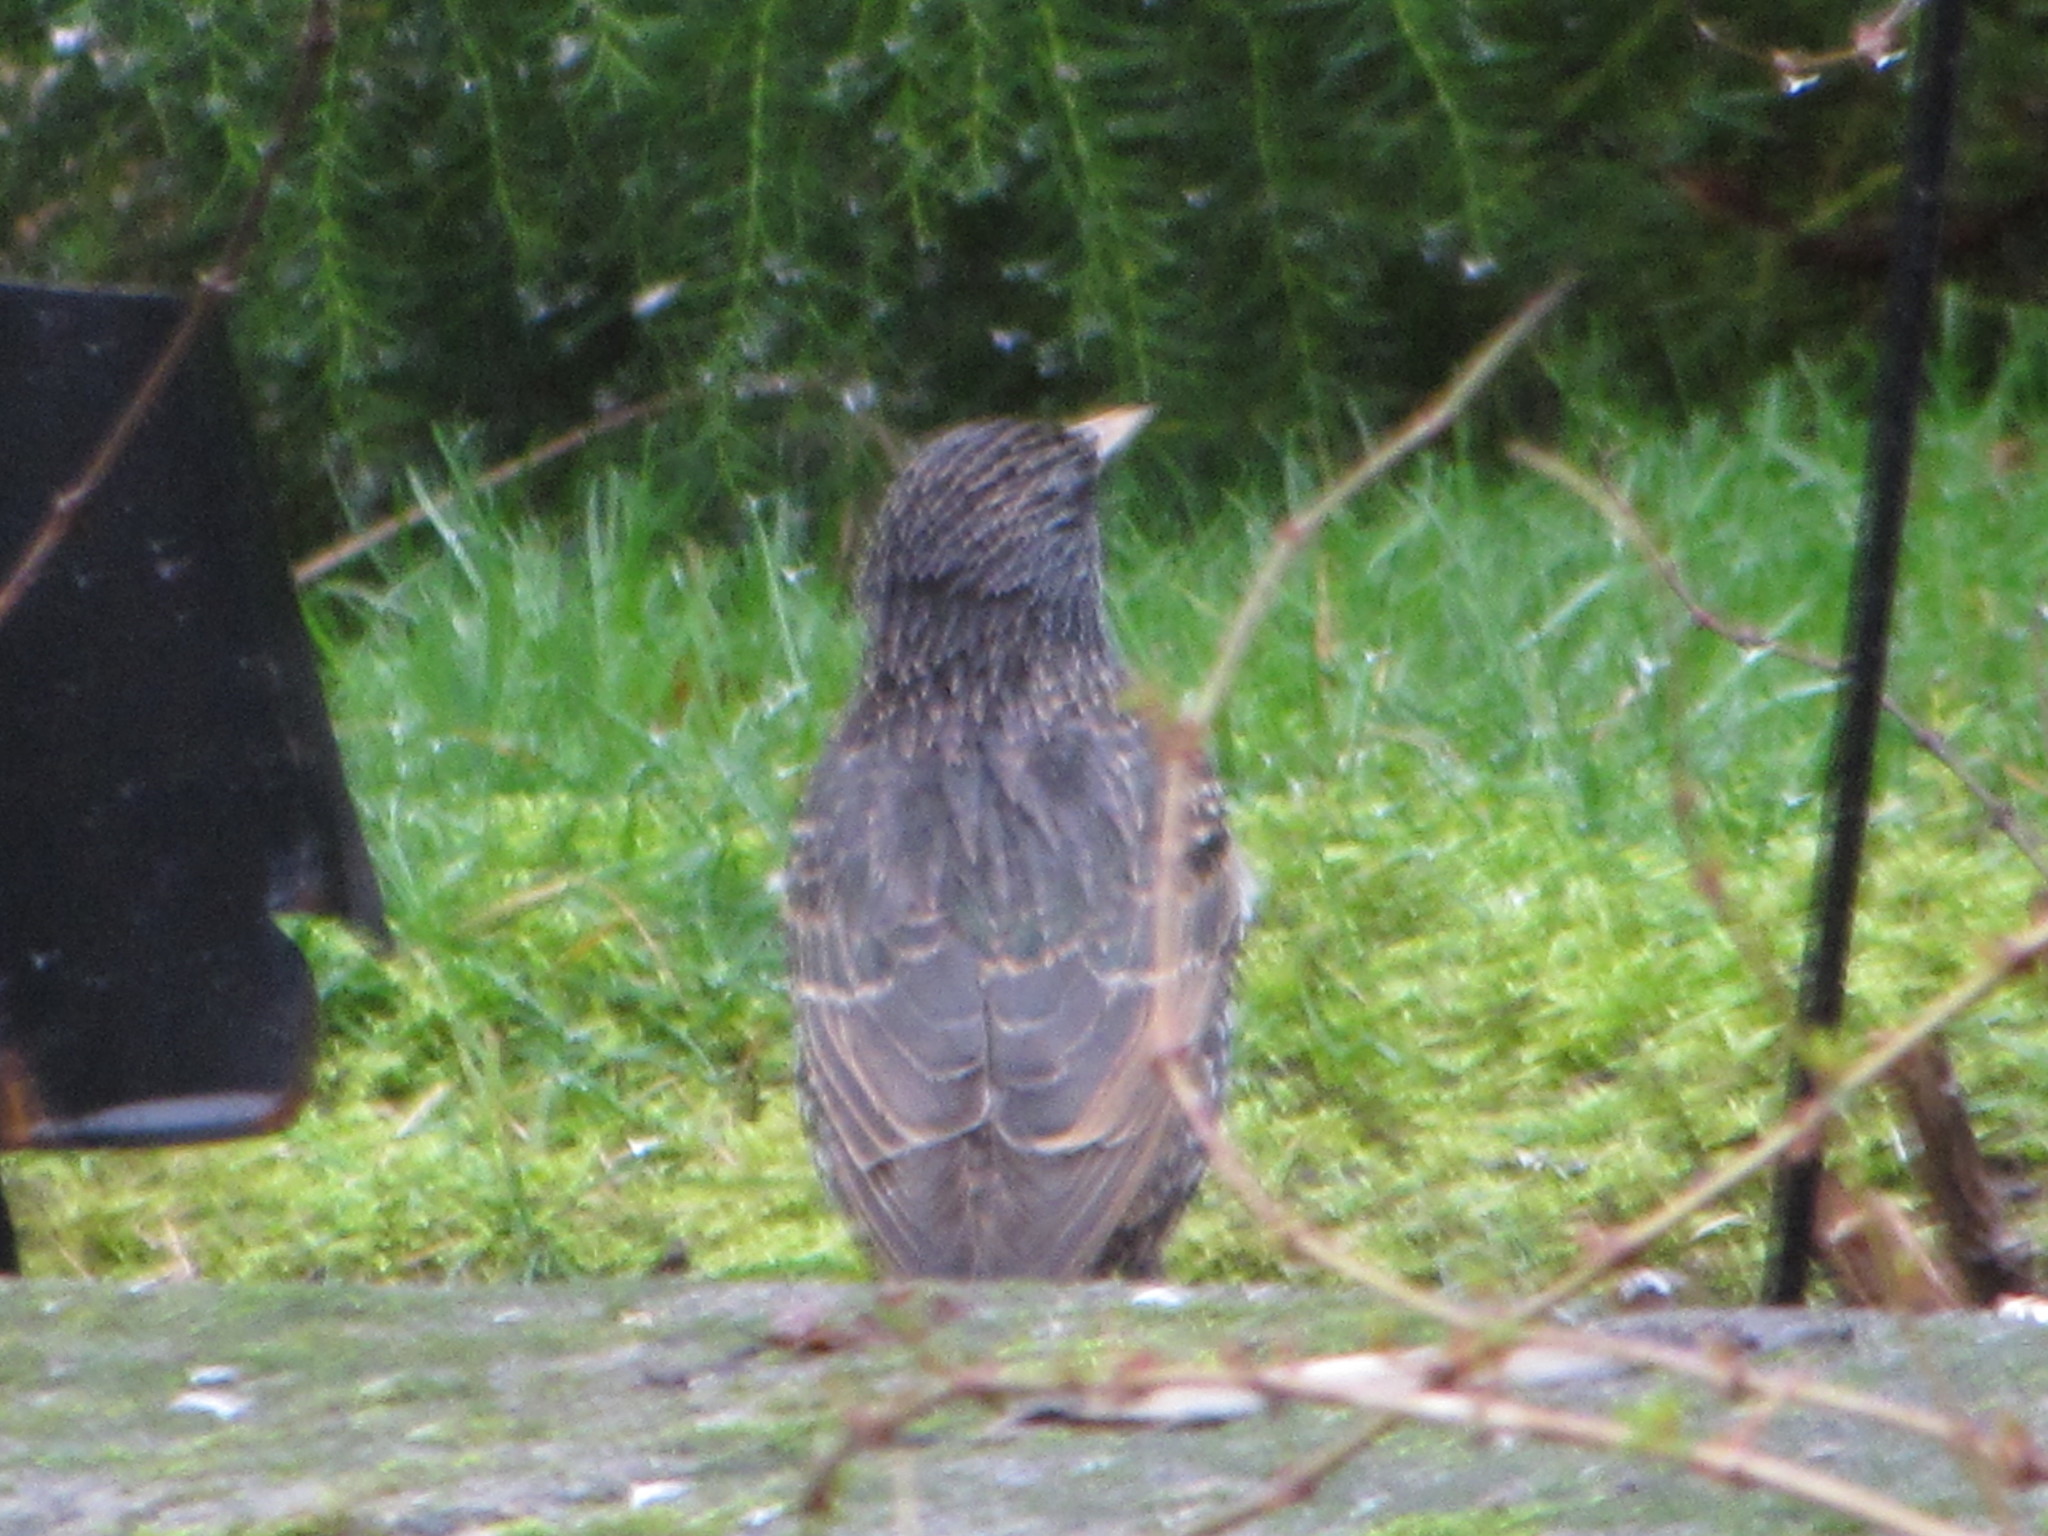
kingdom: Animalia
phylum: Chordata
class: Aves
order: Passeriformes
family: Sturnidae
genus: Sturnus
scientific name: Sturnus vulgaris
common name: Common starling
